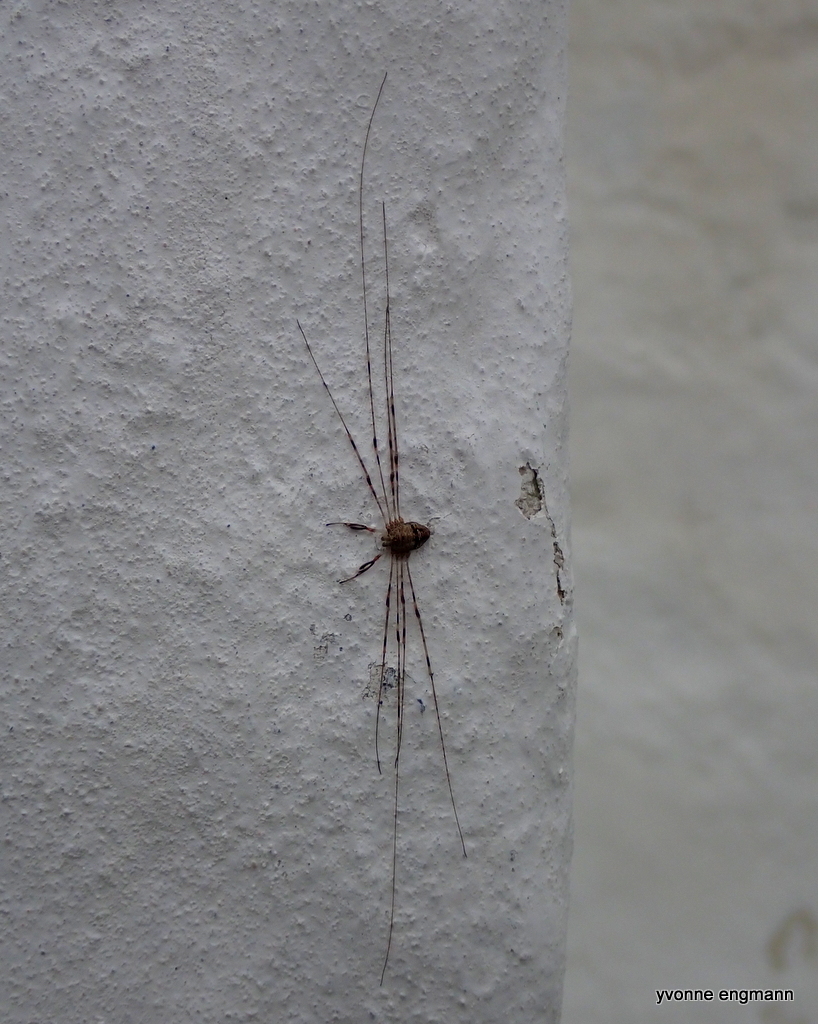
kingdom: Animalia
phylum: Arthropoda
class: Arachnida
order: Opiliones
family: Phalangiidae
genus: Dicranopalpus
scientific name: Dicranopalpus ramosus
